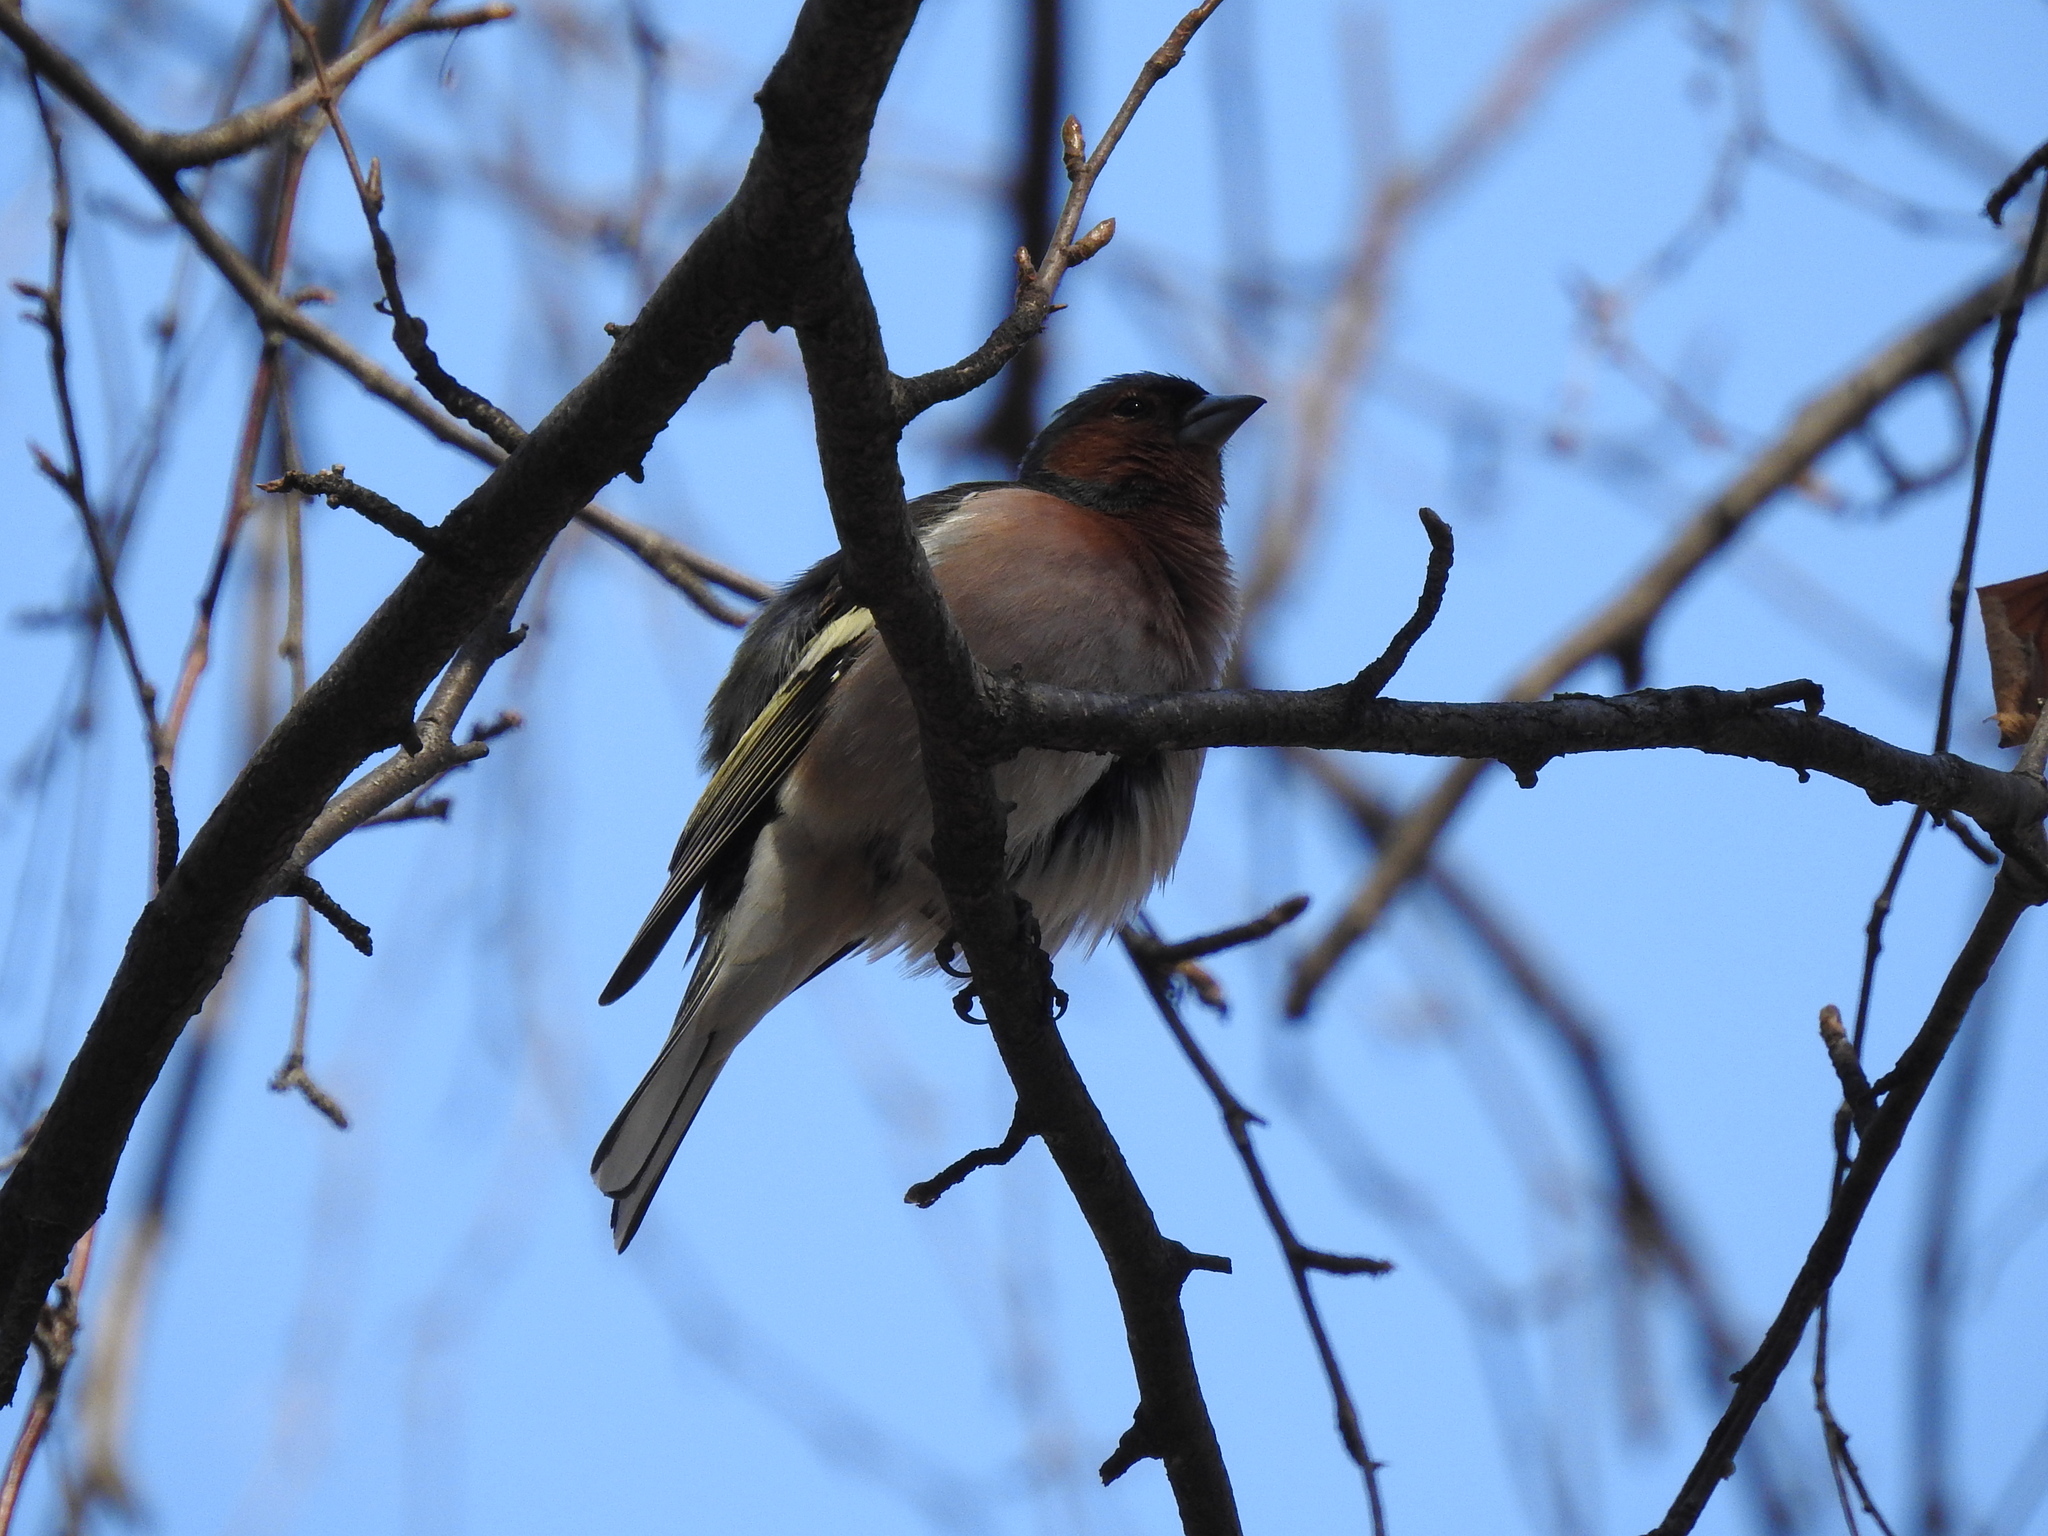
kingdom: Animalia
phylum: Chordata
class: Aves
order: Passeriformes
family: Fringillidae
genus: Fringilla
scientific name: Fringilla coelebs
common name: Common chaffinch
